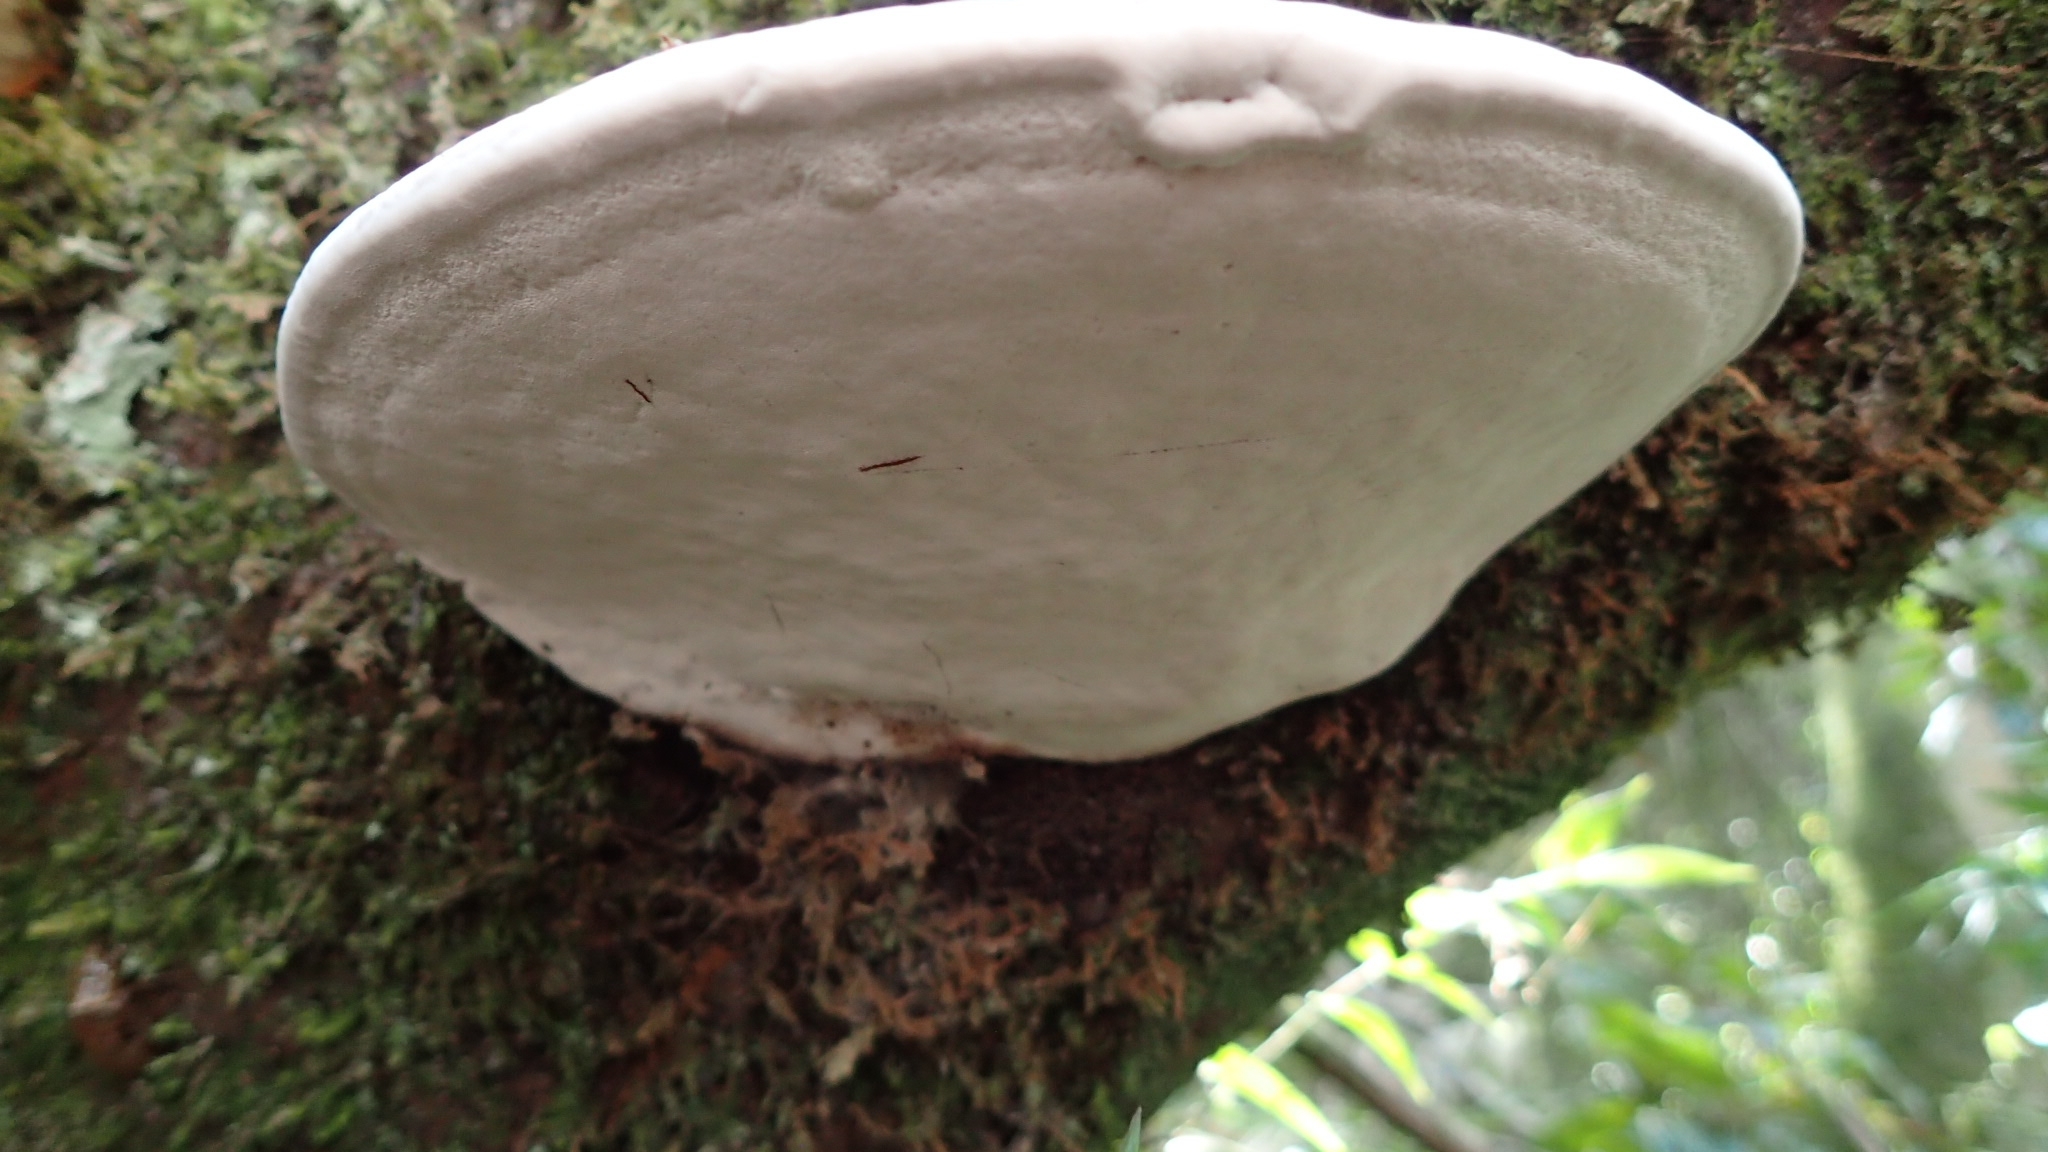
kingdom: Fungi
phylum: Basidiomycota
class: Agaricomycetes
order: Polyporales
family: Polyporaceae
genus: Ganoderma
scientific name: Ganoderma applanatum
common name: Artist's bracket
